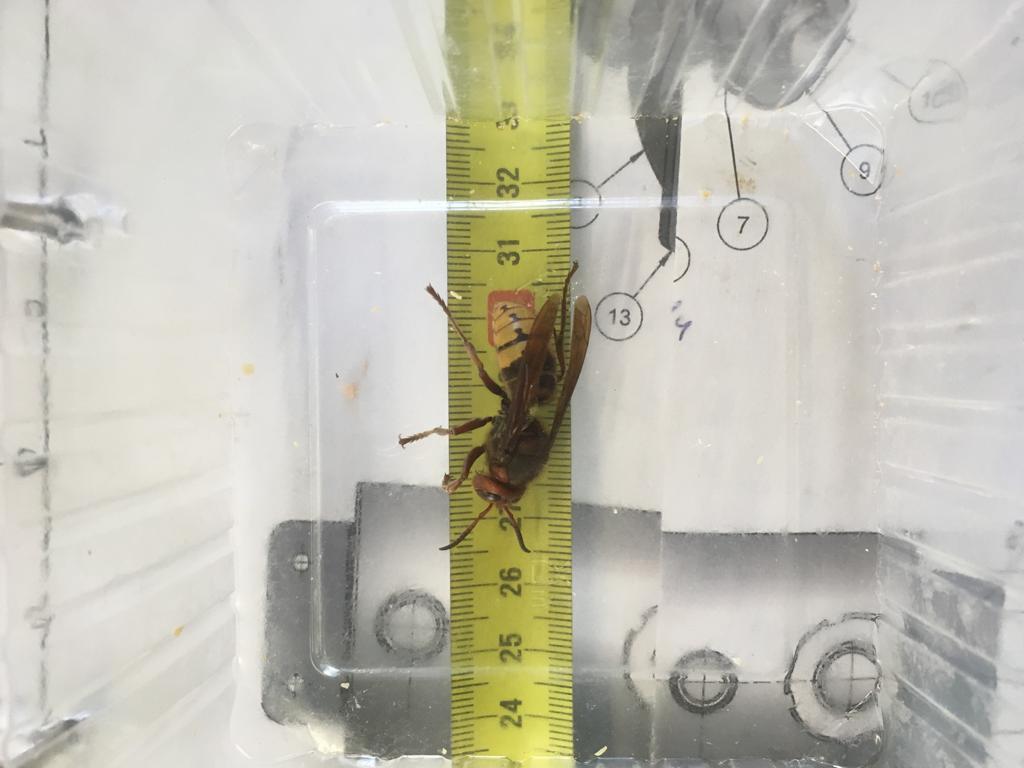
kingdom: Animalia
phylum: Arthropoda
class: Insecta
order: Hymenoptera
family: Vespidae
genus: Vespa
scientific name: Vespa crabro
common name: Hornet
